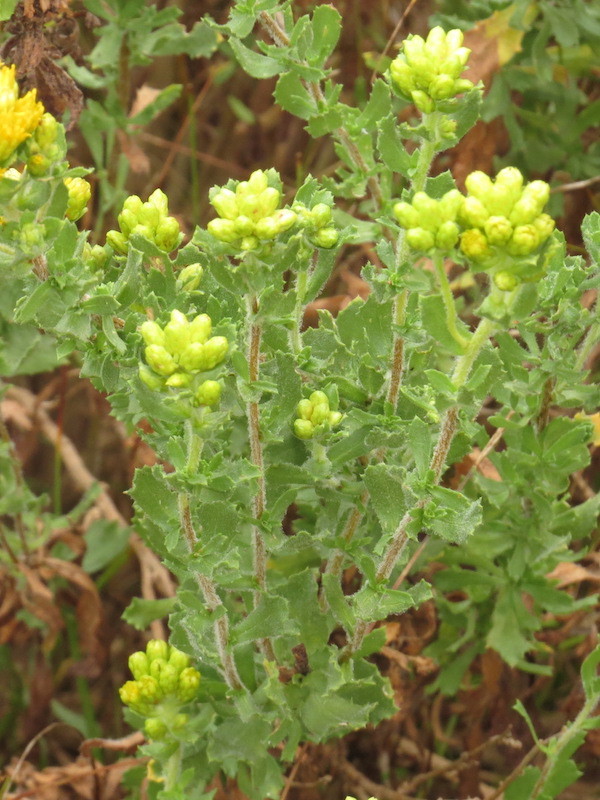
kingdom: Plantae
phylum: Tracheophyta
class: Magnoliopsida
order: Asterales
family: Asteraceae
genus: Isocoma
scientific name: Isocoma menziesii
